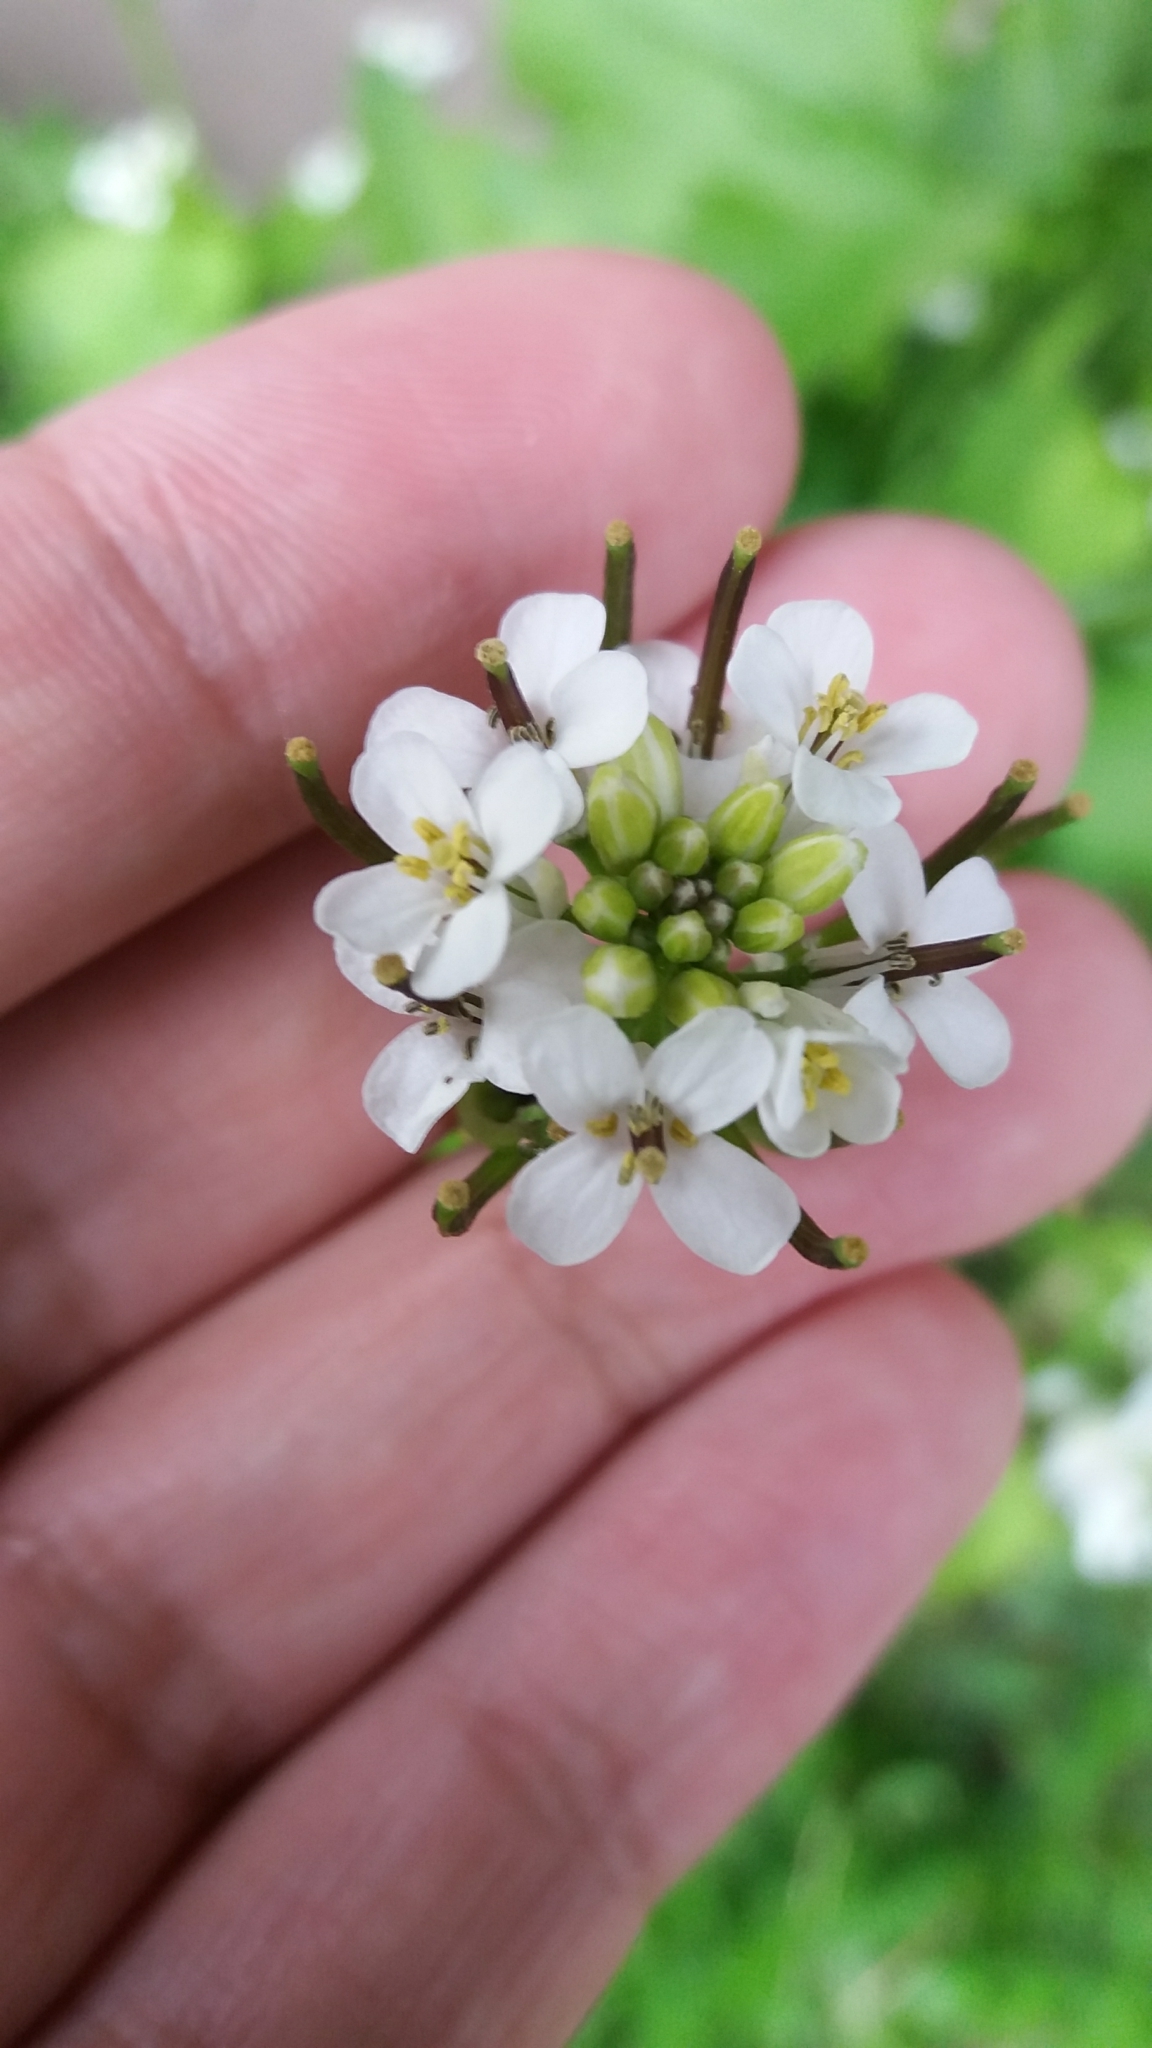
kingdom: Plantae
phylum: Tracheophyta
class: Magnoliopsida
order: Brassicales
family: Brassicaceae
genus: Alliaria
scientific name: Alliaria petiolata
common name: Garlic mustard
